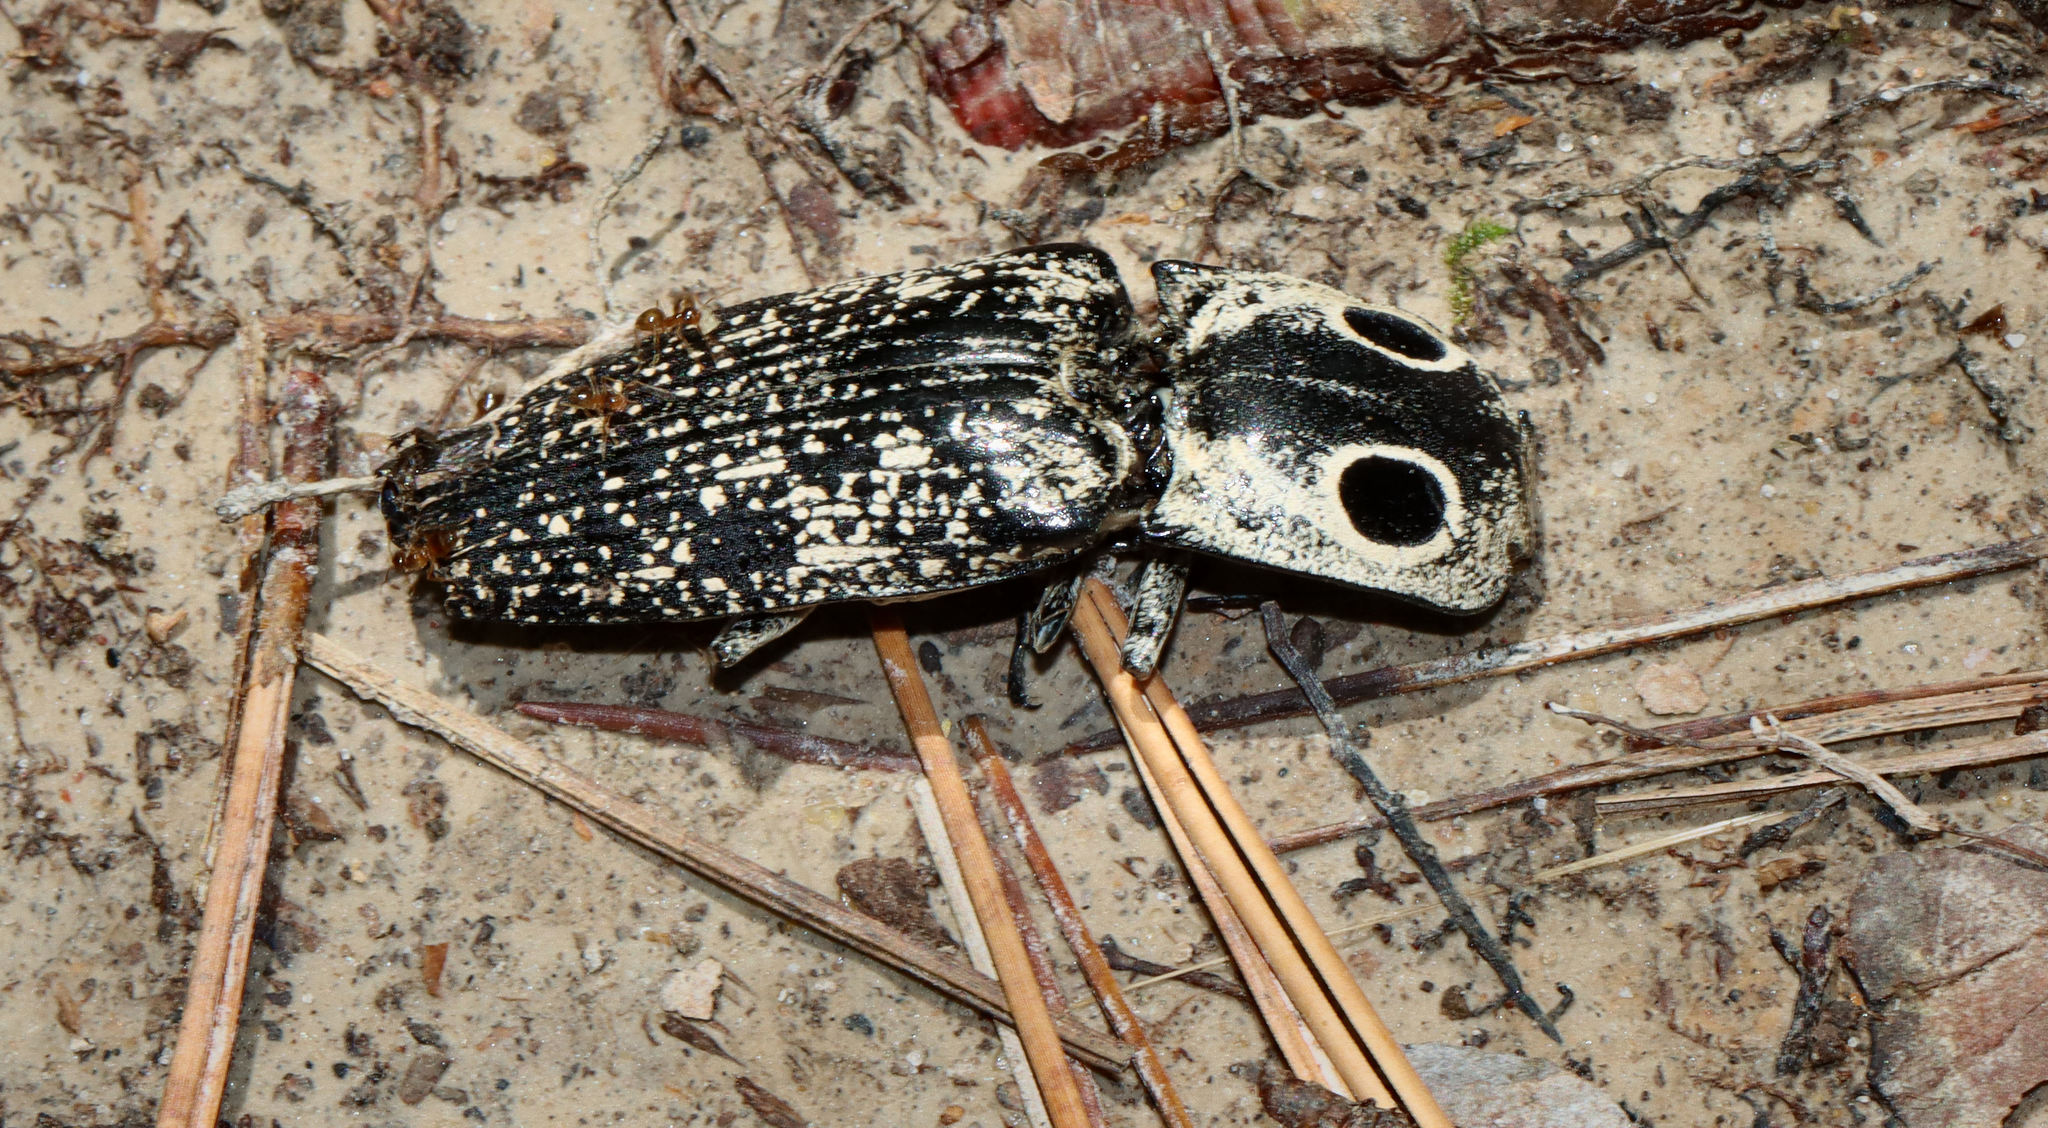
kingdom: Animalia
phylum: Arthropoda
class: Insecta
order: Coleoptera
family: Elateridae
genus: Alaus
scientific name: Alaus oculatus
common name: Eastern eyed click beetle
